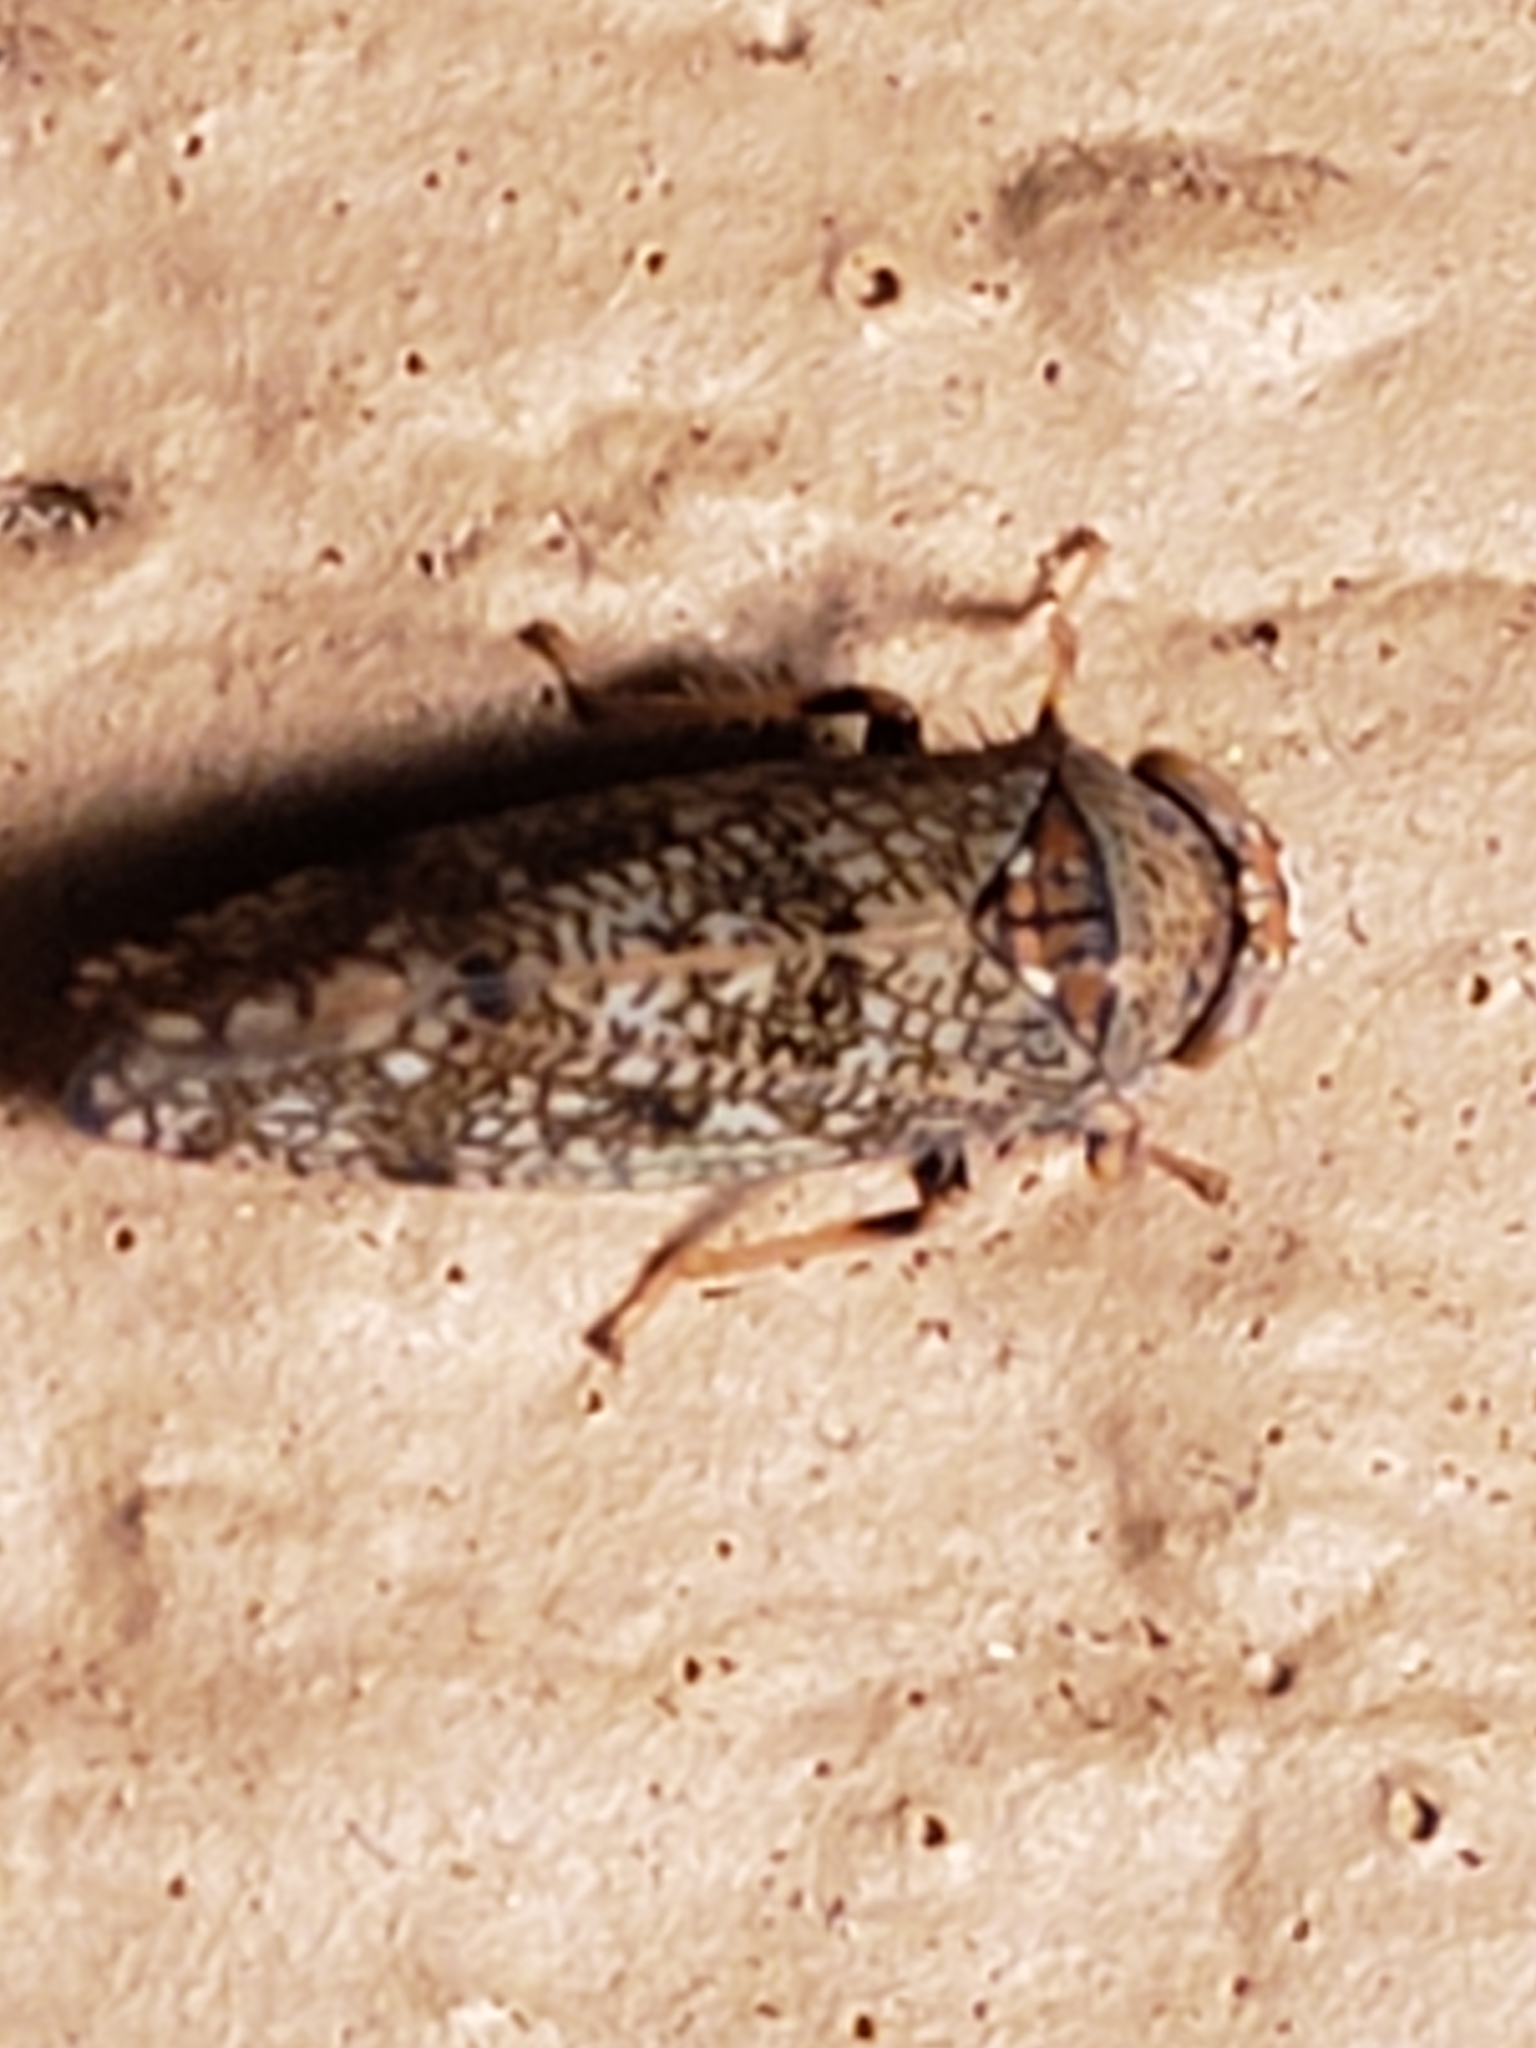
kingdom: Animalia
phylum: Arthropoda
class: Insecta
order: Hemiptera
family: Cicadellidae
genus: Orientus
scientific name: Orientus ishidae
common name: Japanese leafhopper
